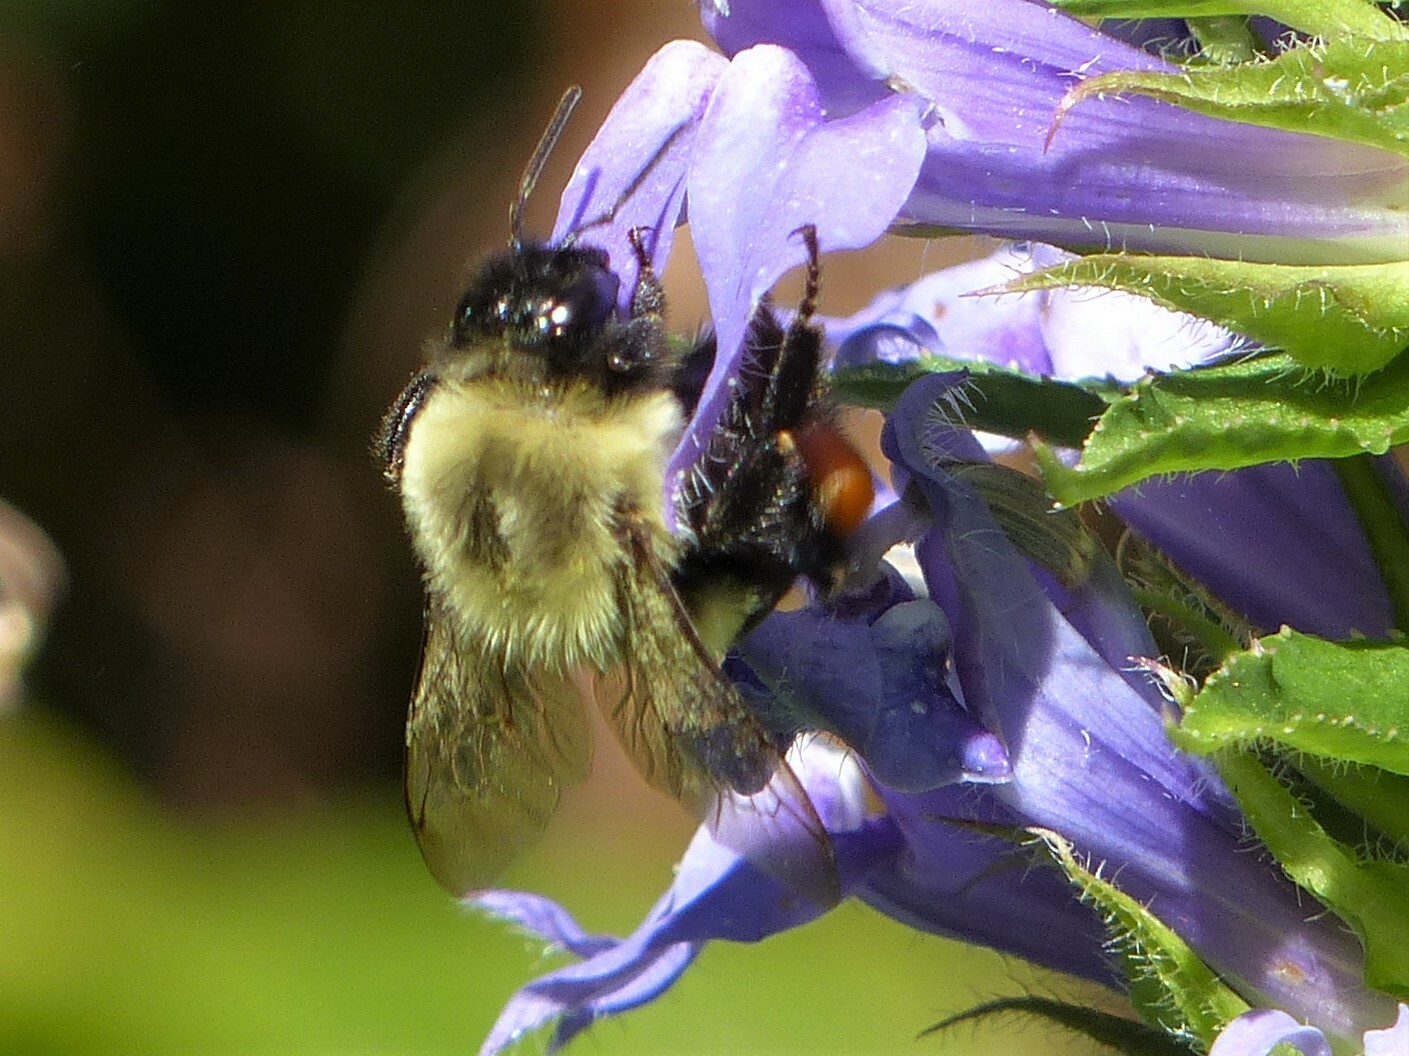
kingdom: Animalia
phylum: Arthropoda
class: Insecta
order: Hymenoptera
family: Apidae
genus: Bombus
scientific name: Bombus impatiens
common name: Common eastern bumble bee
